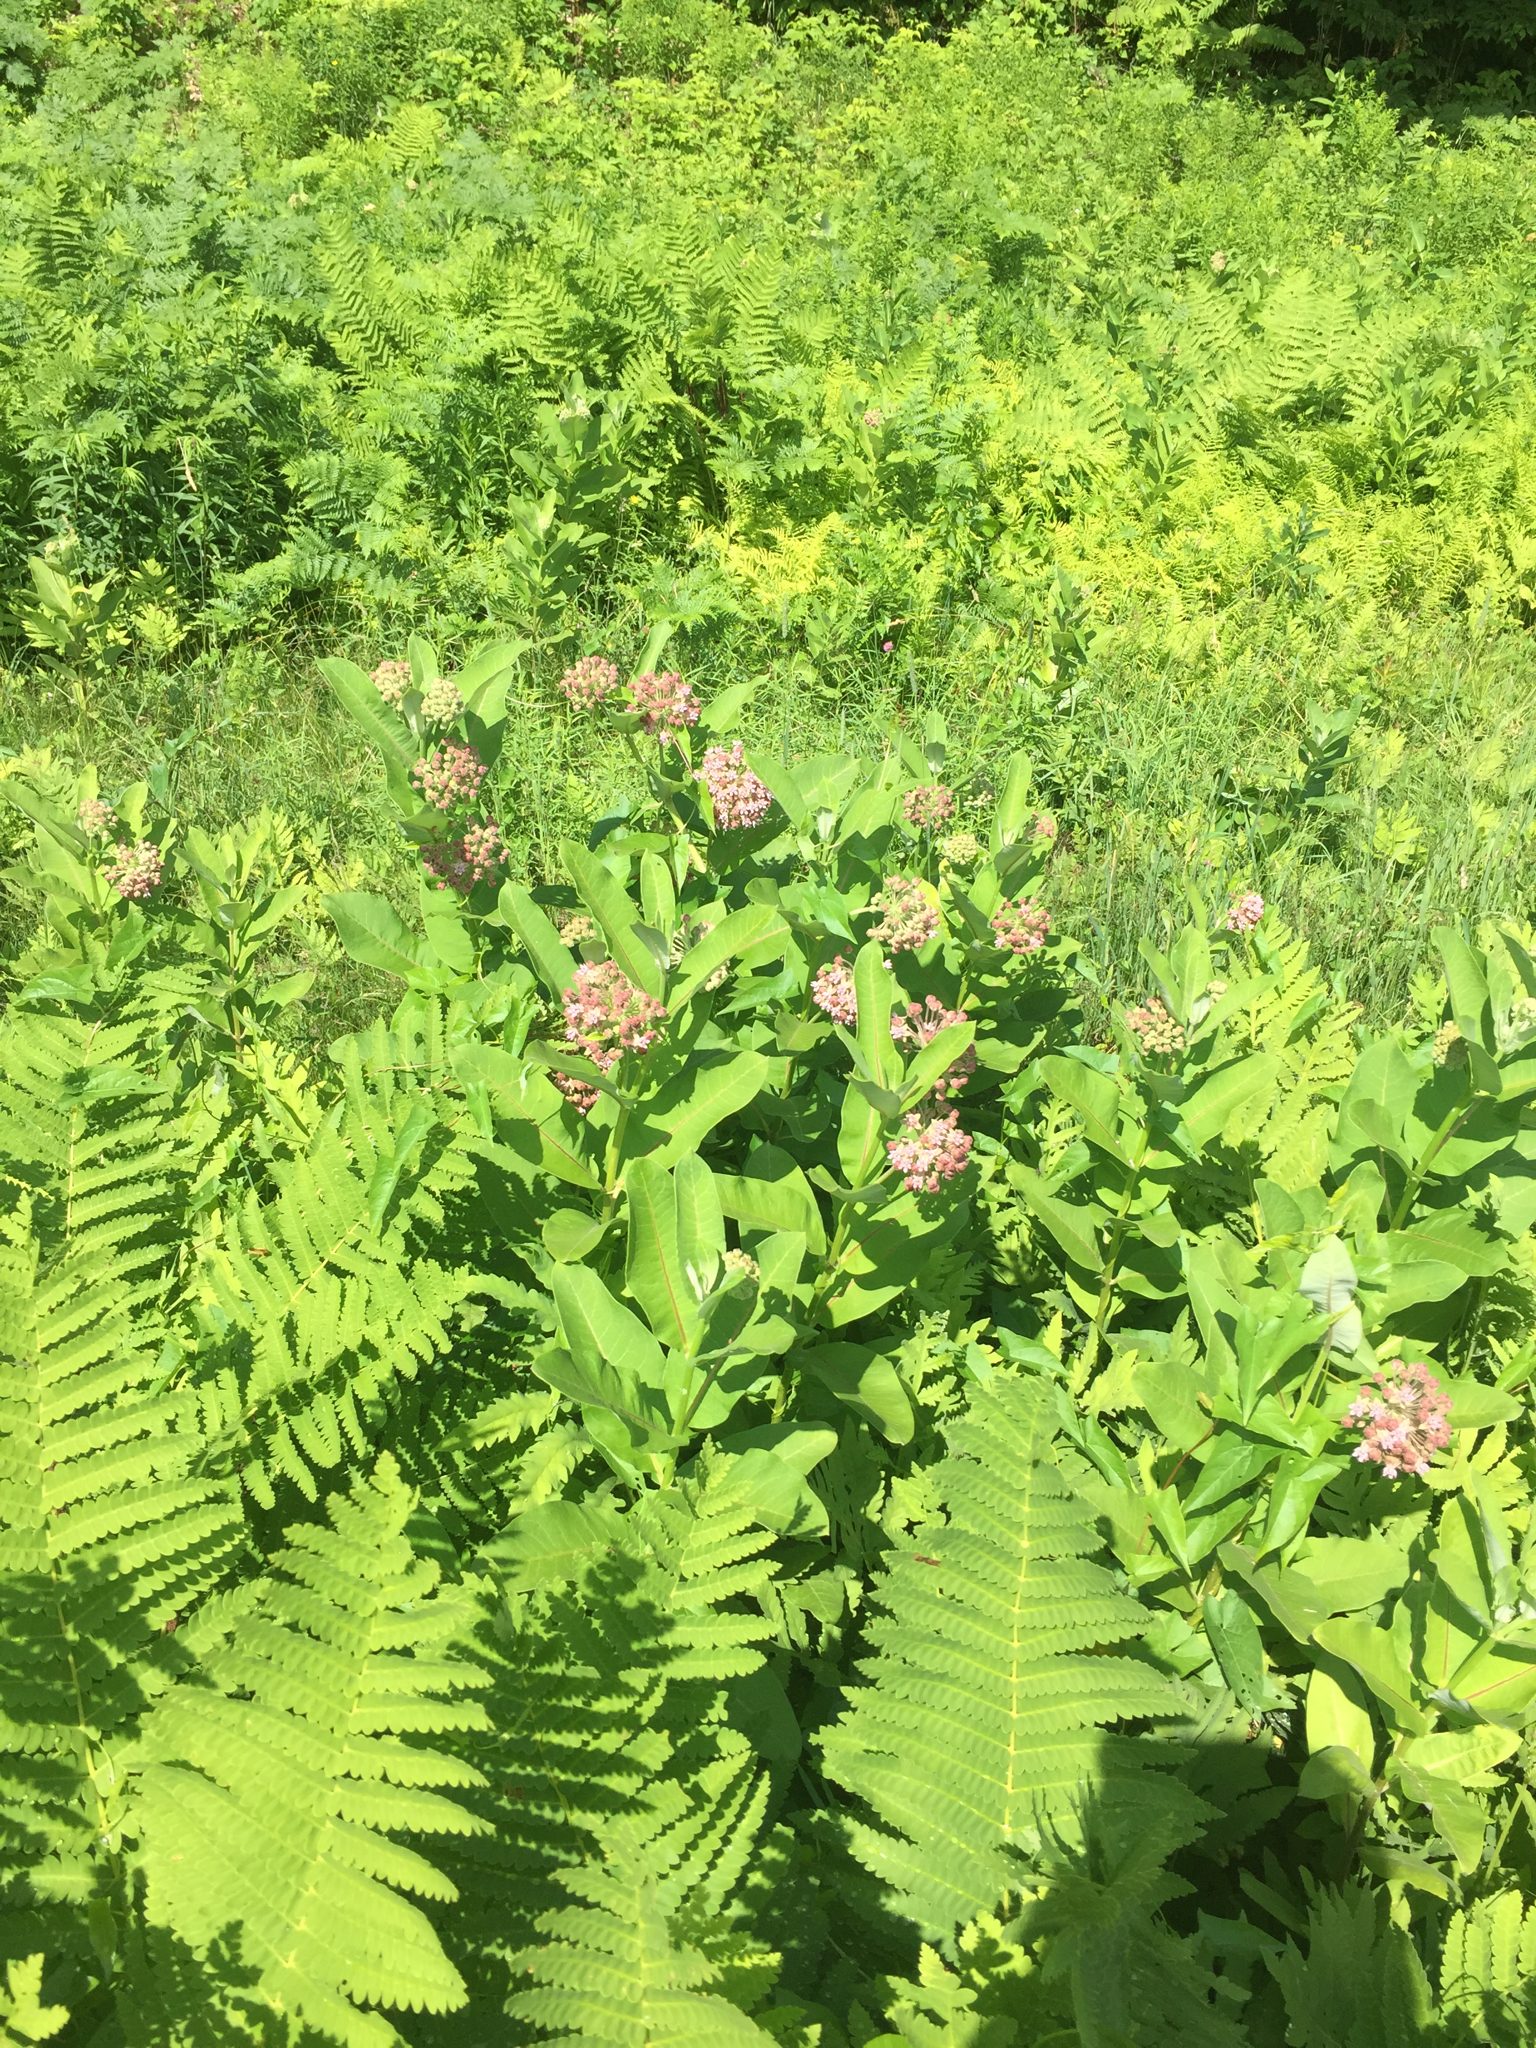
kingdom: Plantae
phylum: Tracheophyta
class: Magnoliopsida
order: Gentianales
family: Apocynaceae
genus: Asclepias
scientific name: Asclepias syriaca
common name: Common milkweed
